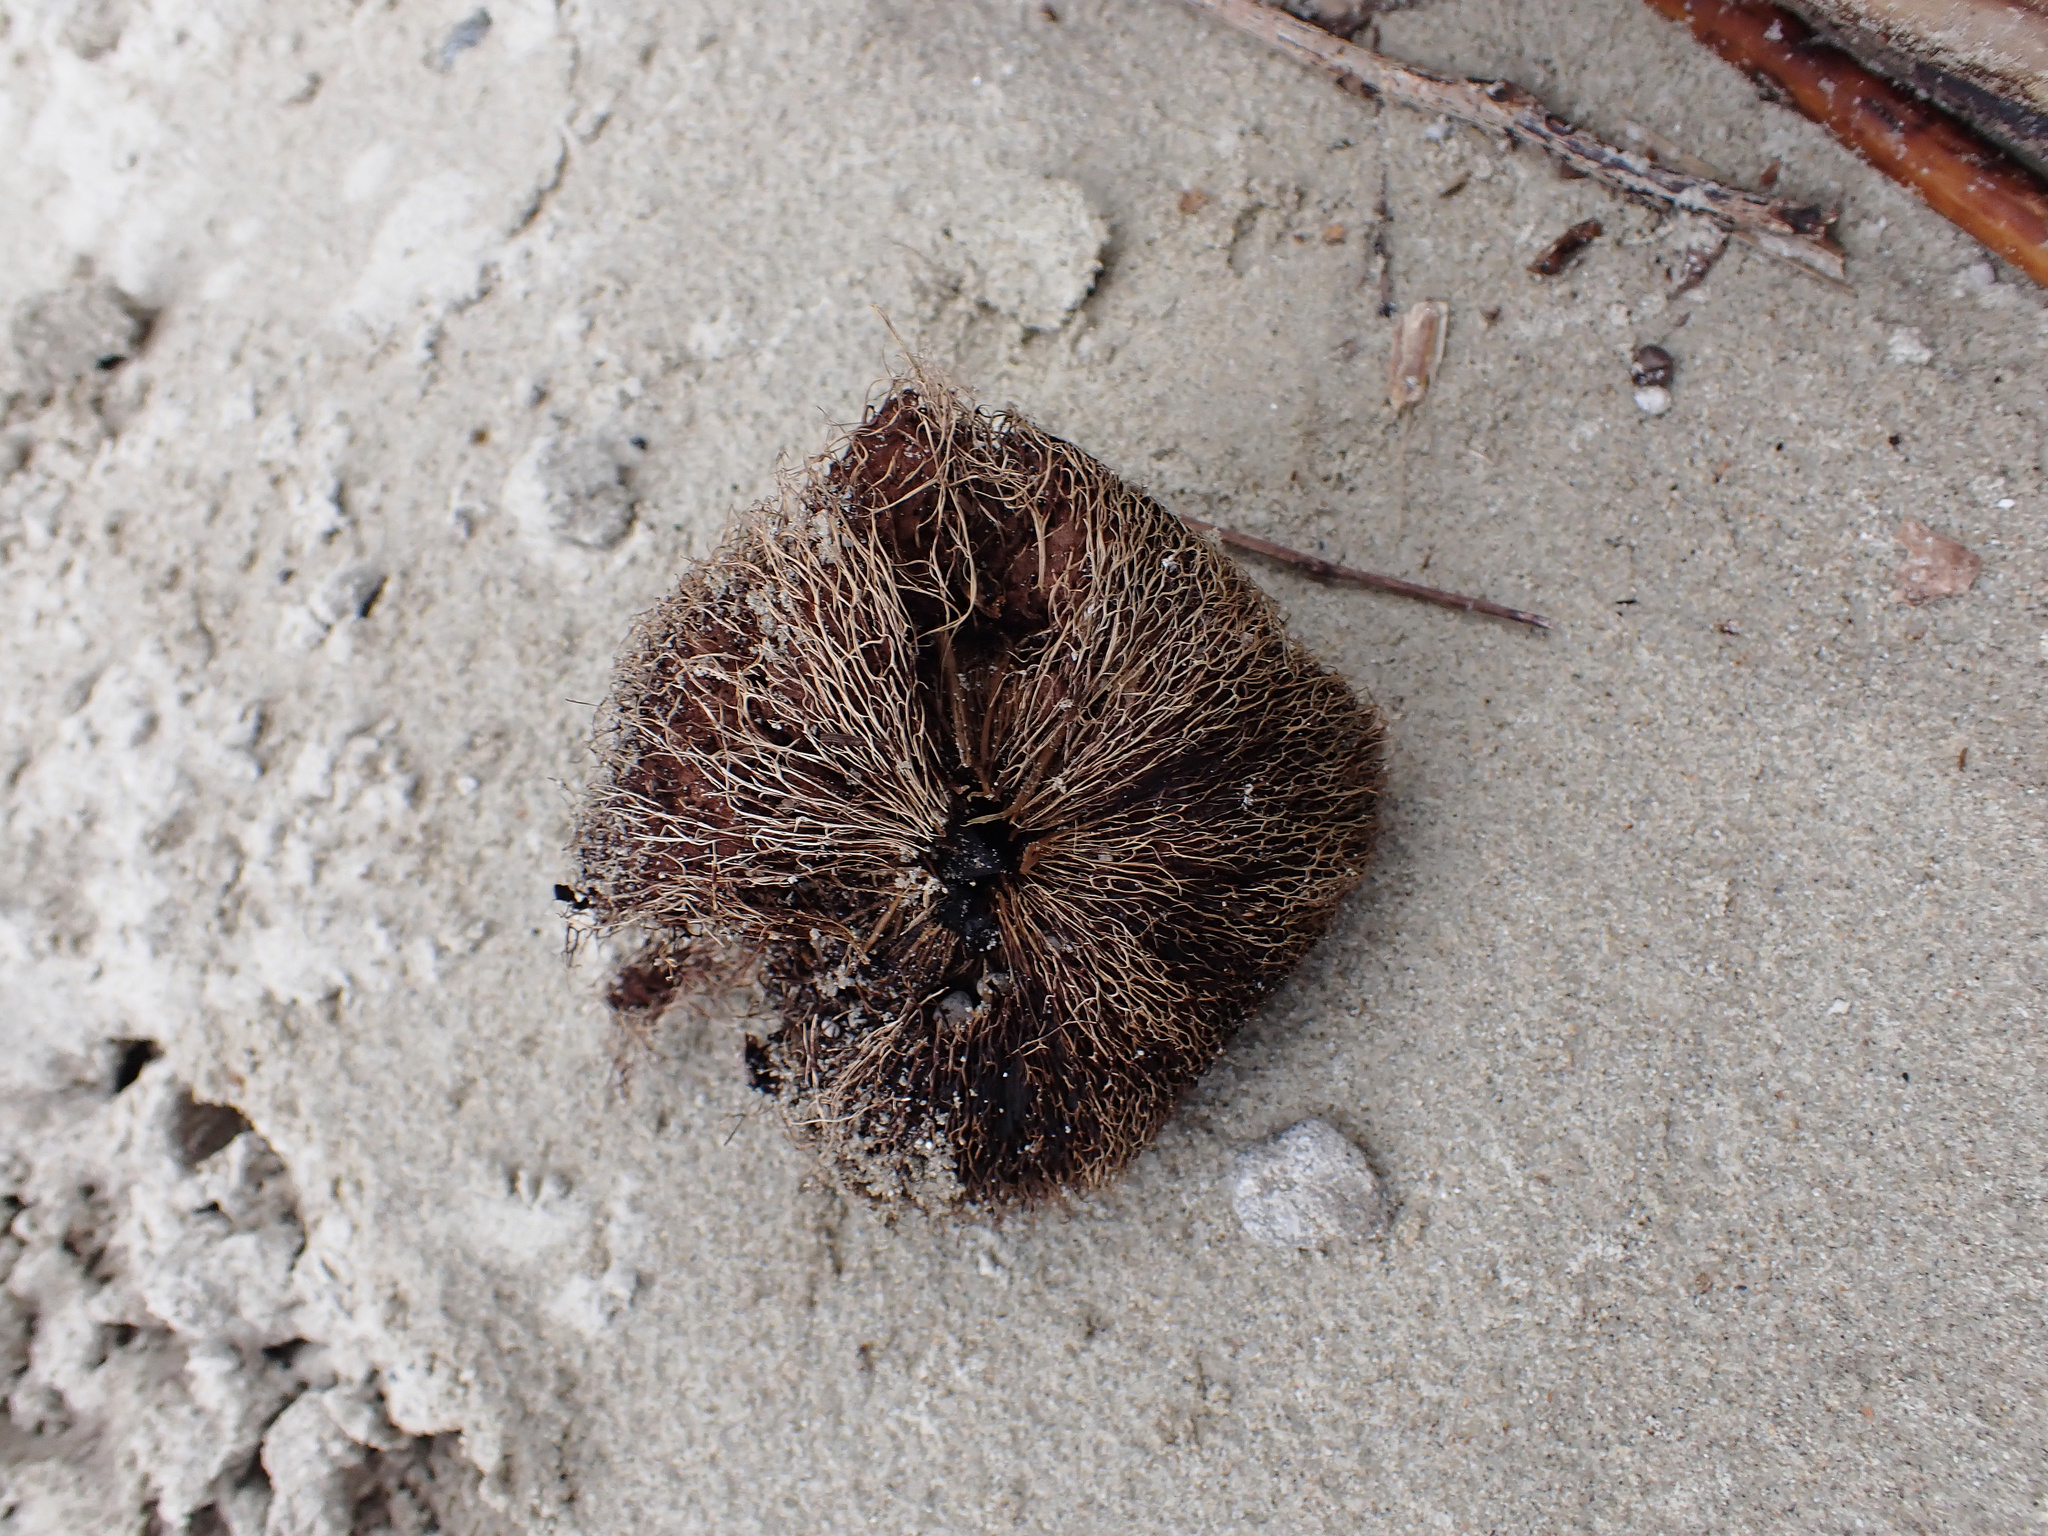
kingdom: Plantae
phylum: Tracheophyta
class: Magnoliopsida
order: Ericales
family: Lecythidaceae
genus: Barringtonia
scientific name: Barringtonia asiatica
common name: Mango-pine
